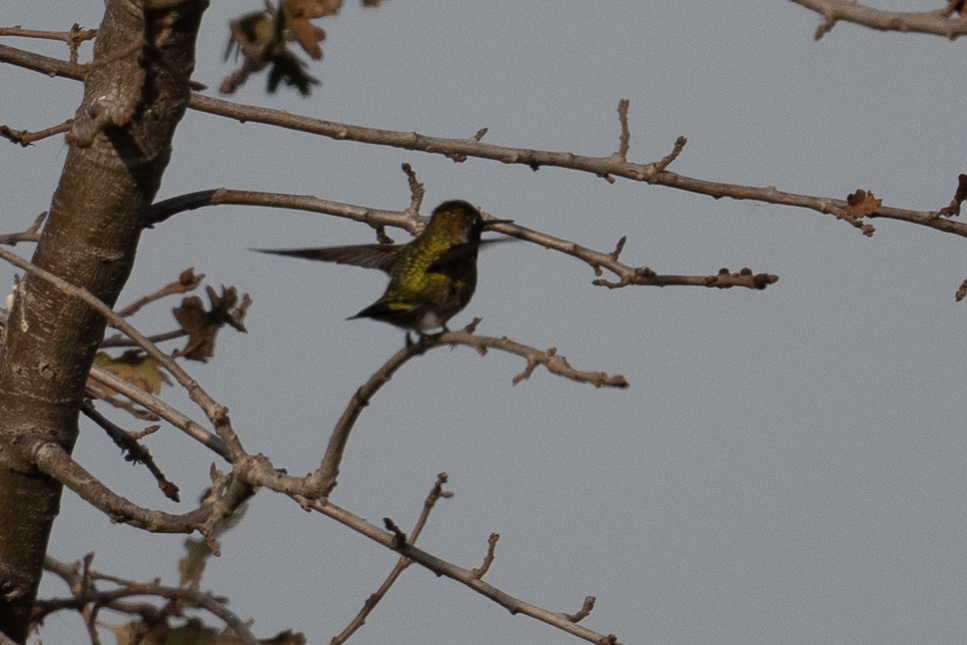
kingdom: Animalia
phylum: Chordata
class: Aves
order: Apodiformes
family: Trochilidae
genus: Calypte
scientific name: Calypte anna
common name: Anna's hummingbird
